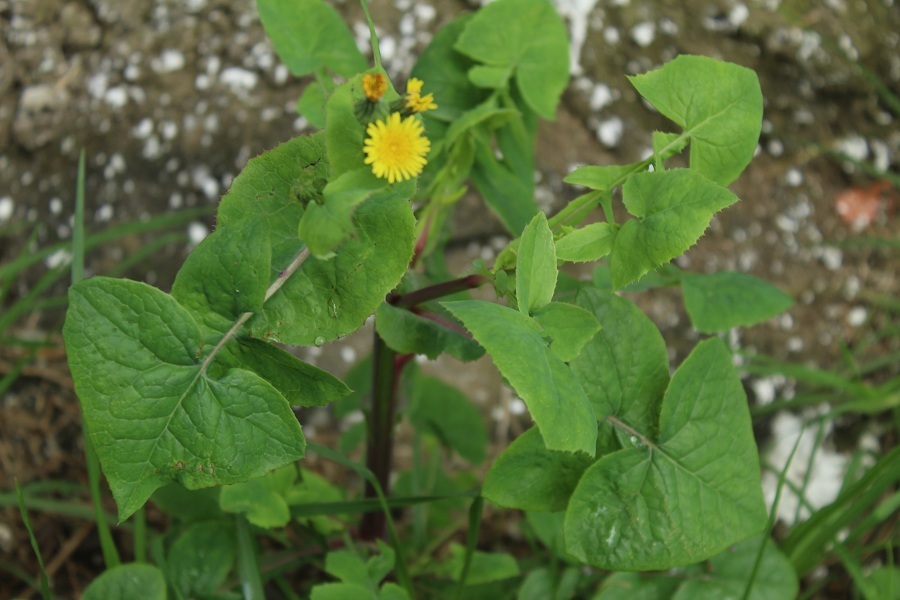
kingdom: Plantae
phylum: Tracheophyta
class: Magnoliopsida
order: Asterales
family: Asteraceae
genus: Sonchus
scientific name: Sonchus oleraceus
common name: Common sowthistle
